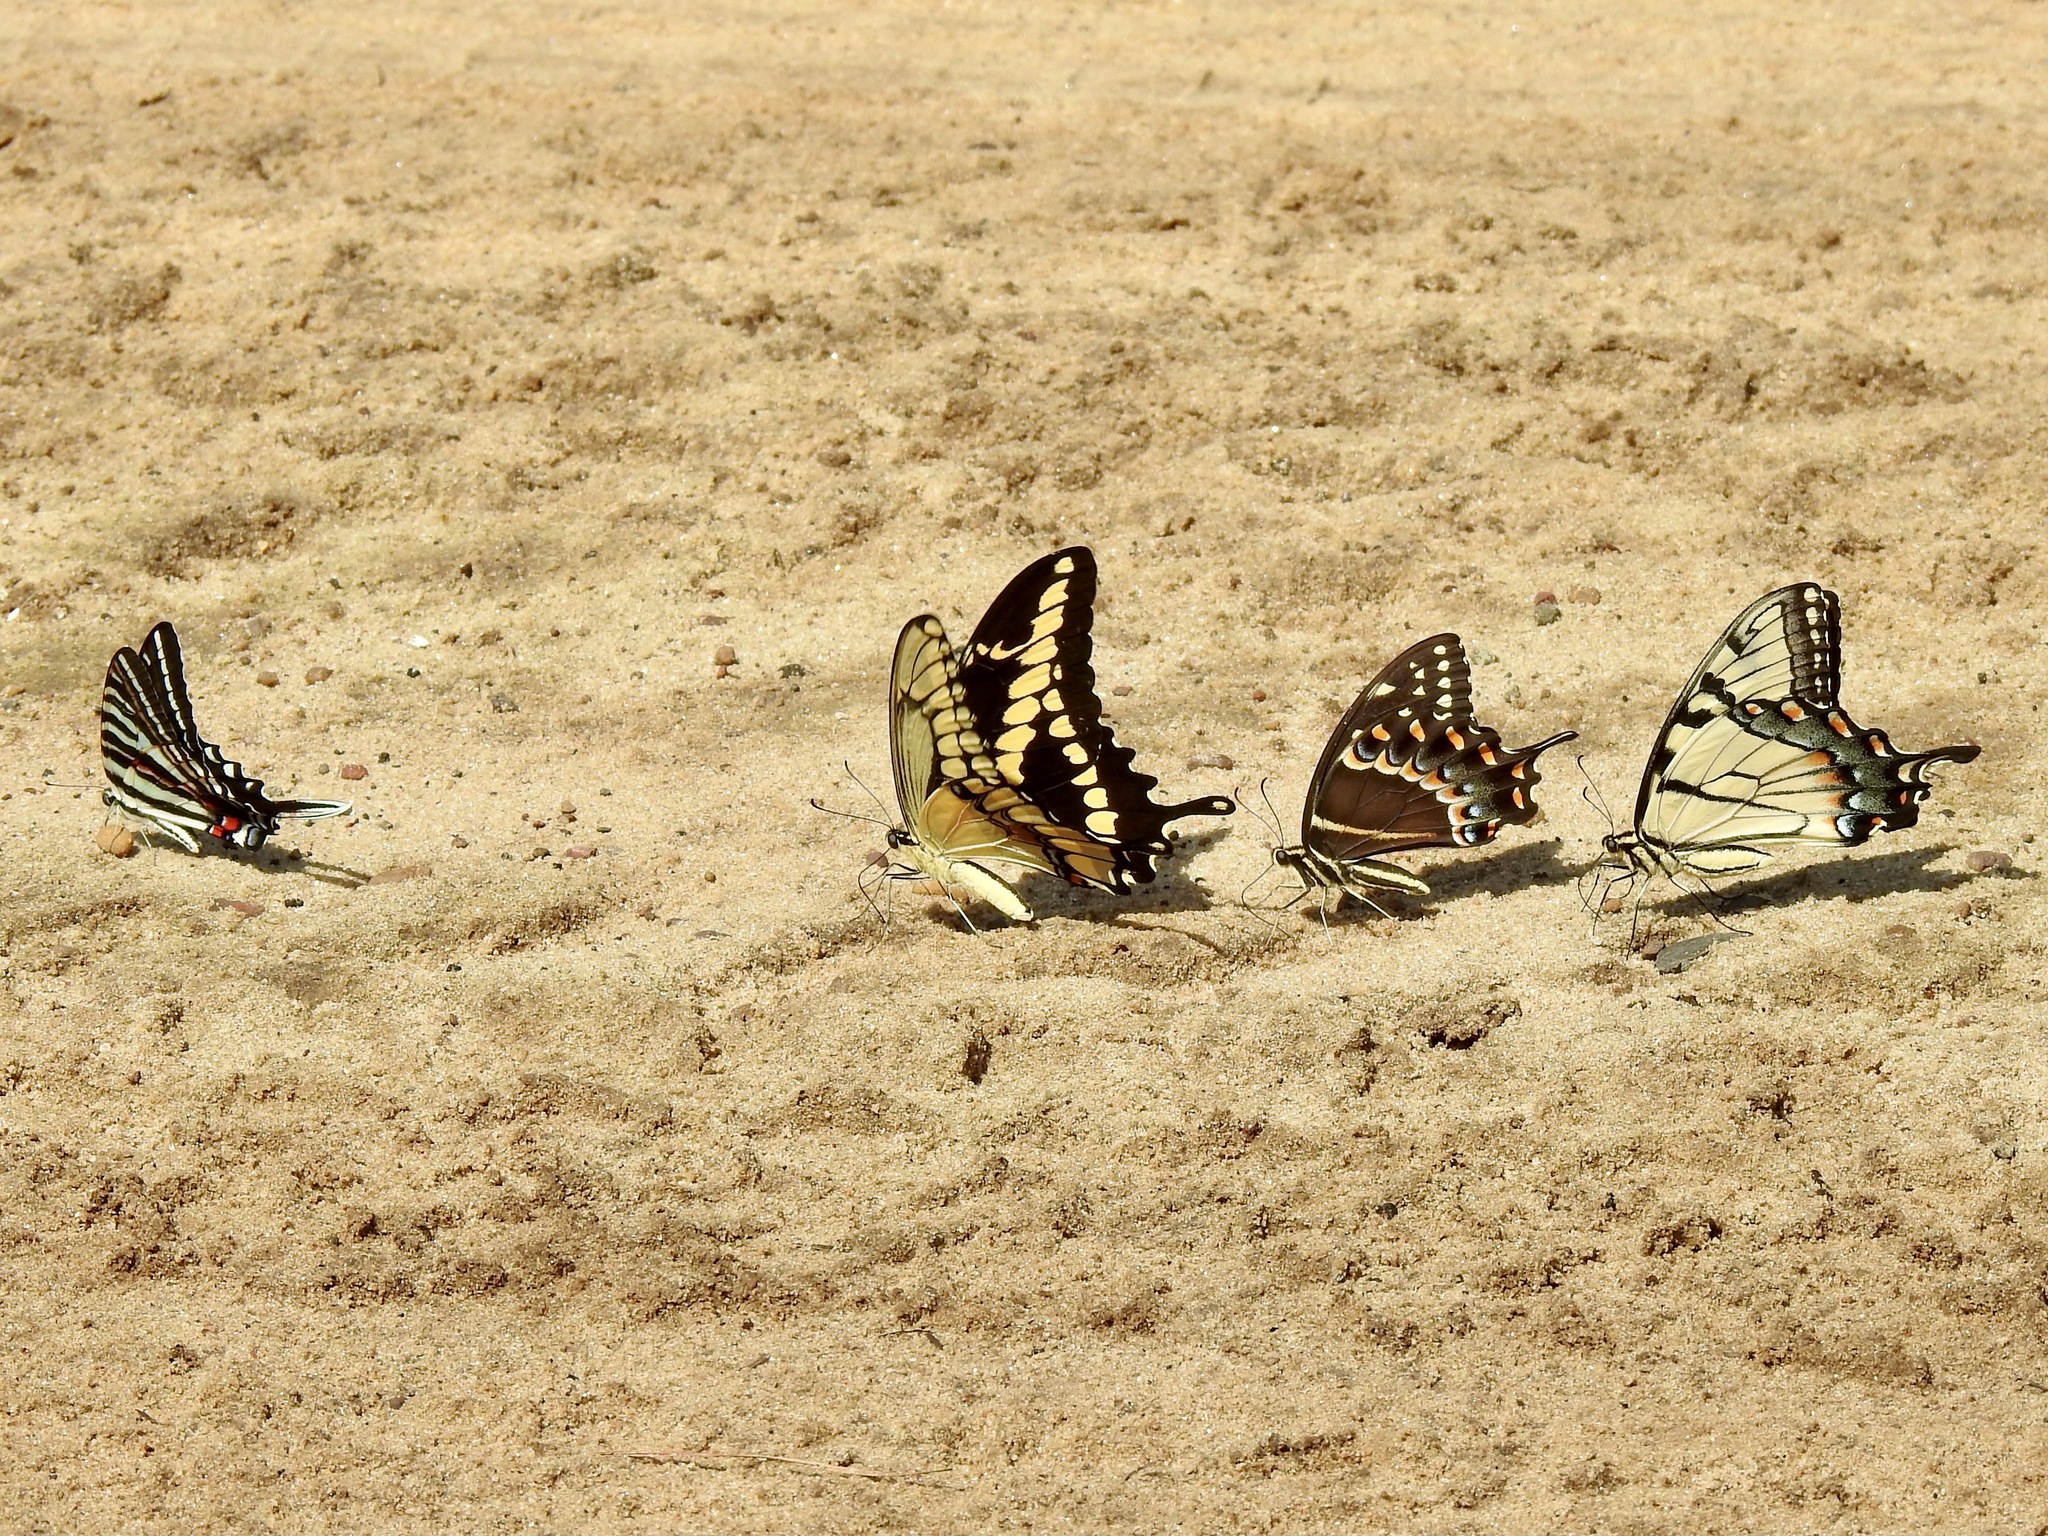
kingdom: Animalia
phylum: Arthropoda
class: Insecta
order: Lepidoptera
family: Papilionidae
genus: Protographium
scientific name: Protographium marcellus
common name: Zebra swallowtail
